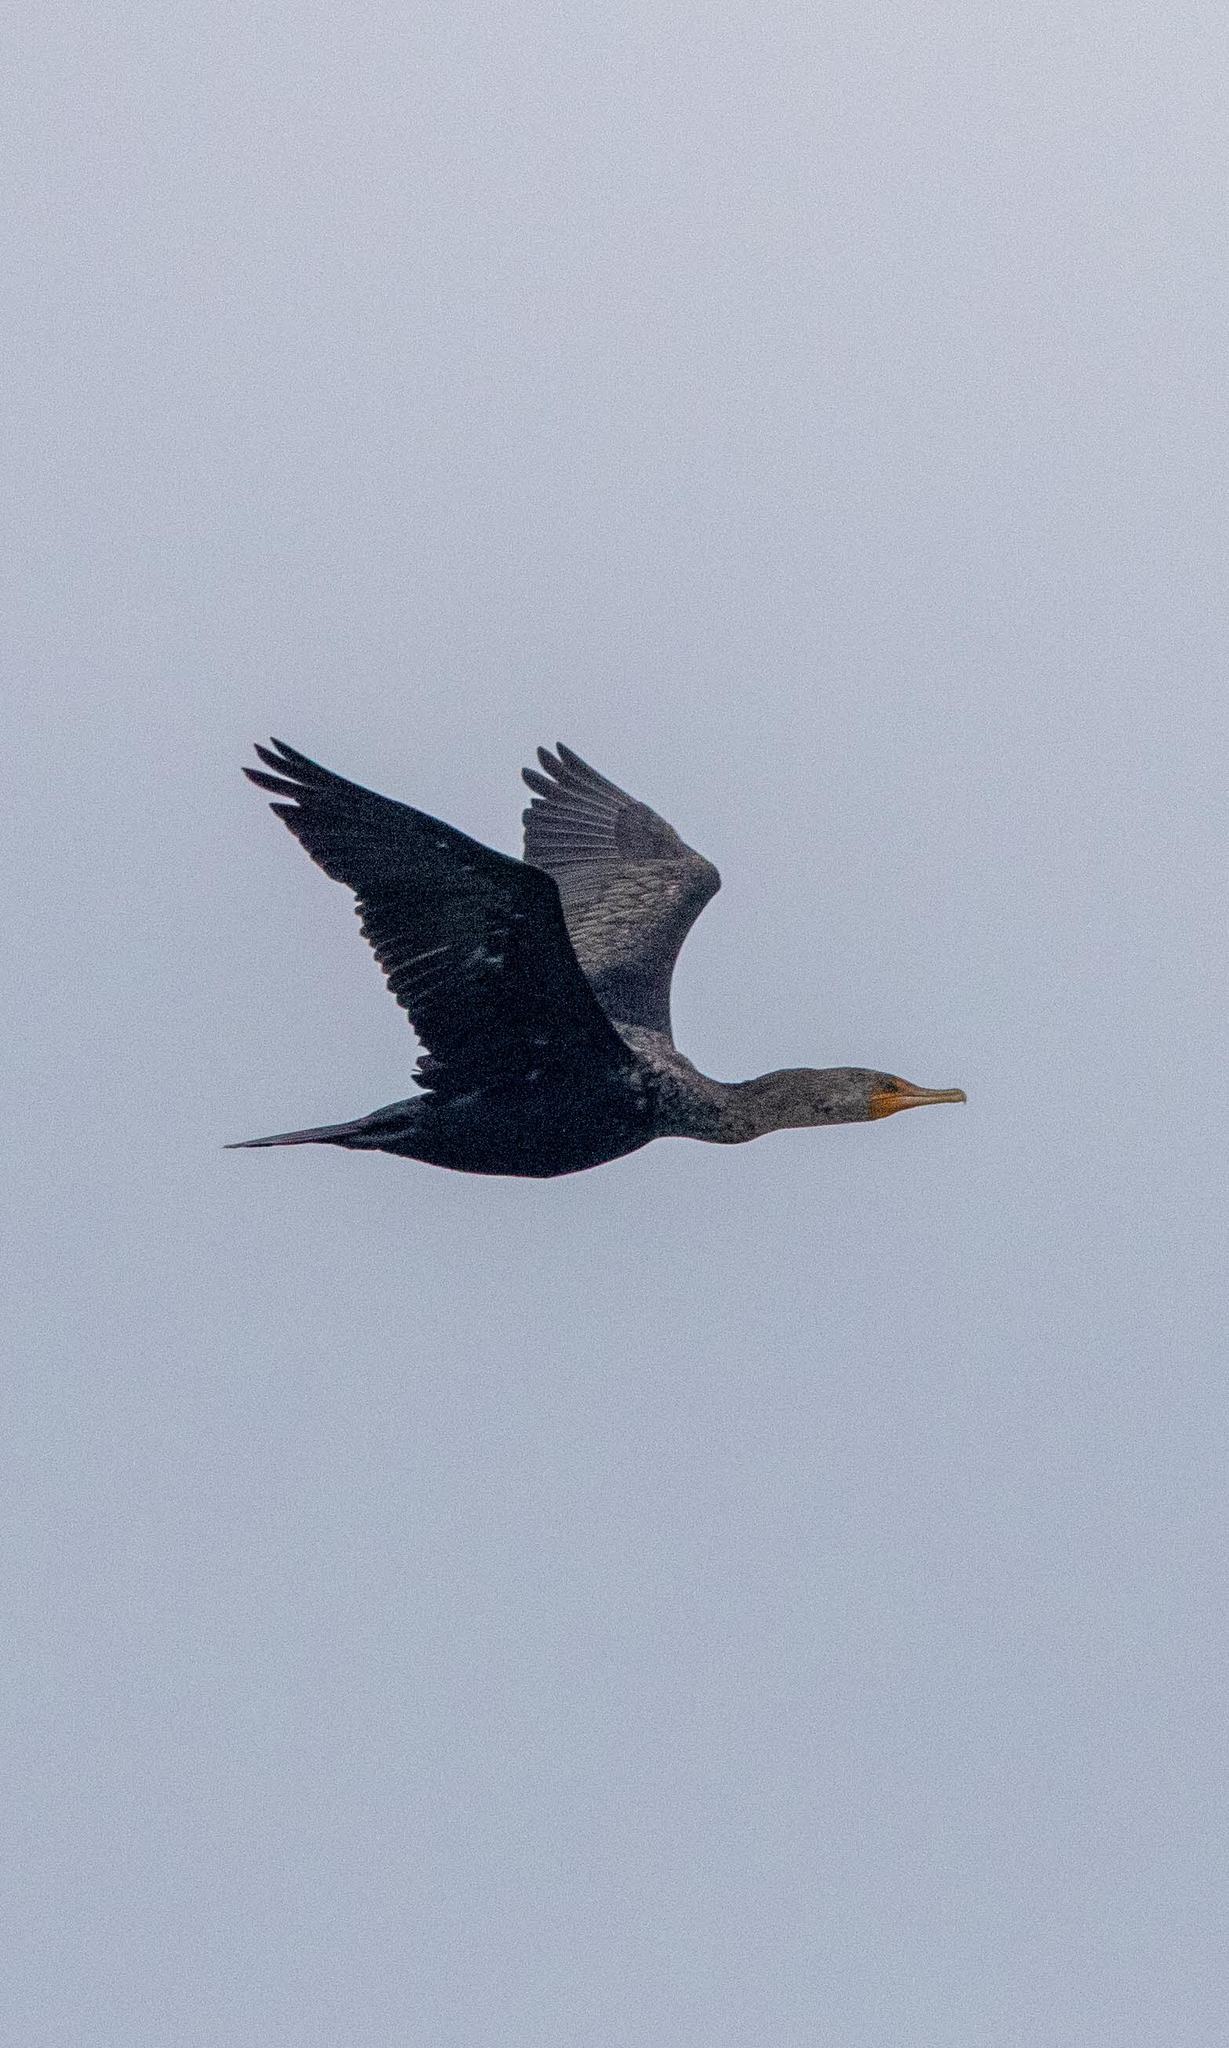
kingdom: Animalia
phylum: Chordata
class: Aves
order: Suliformes
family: Phalacrocoracidae
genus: Phalacrocorax
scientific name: Phalacrocorax auritus
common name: Double-crested cormorant
